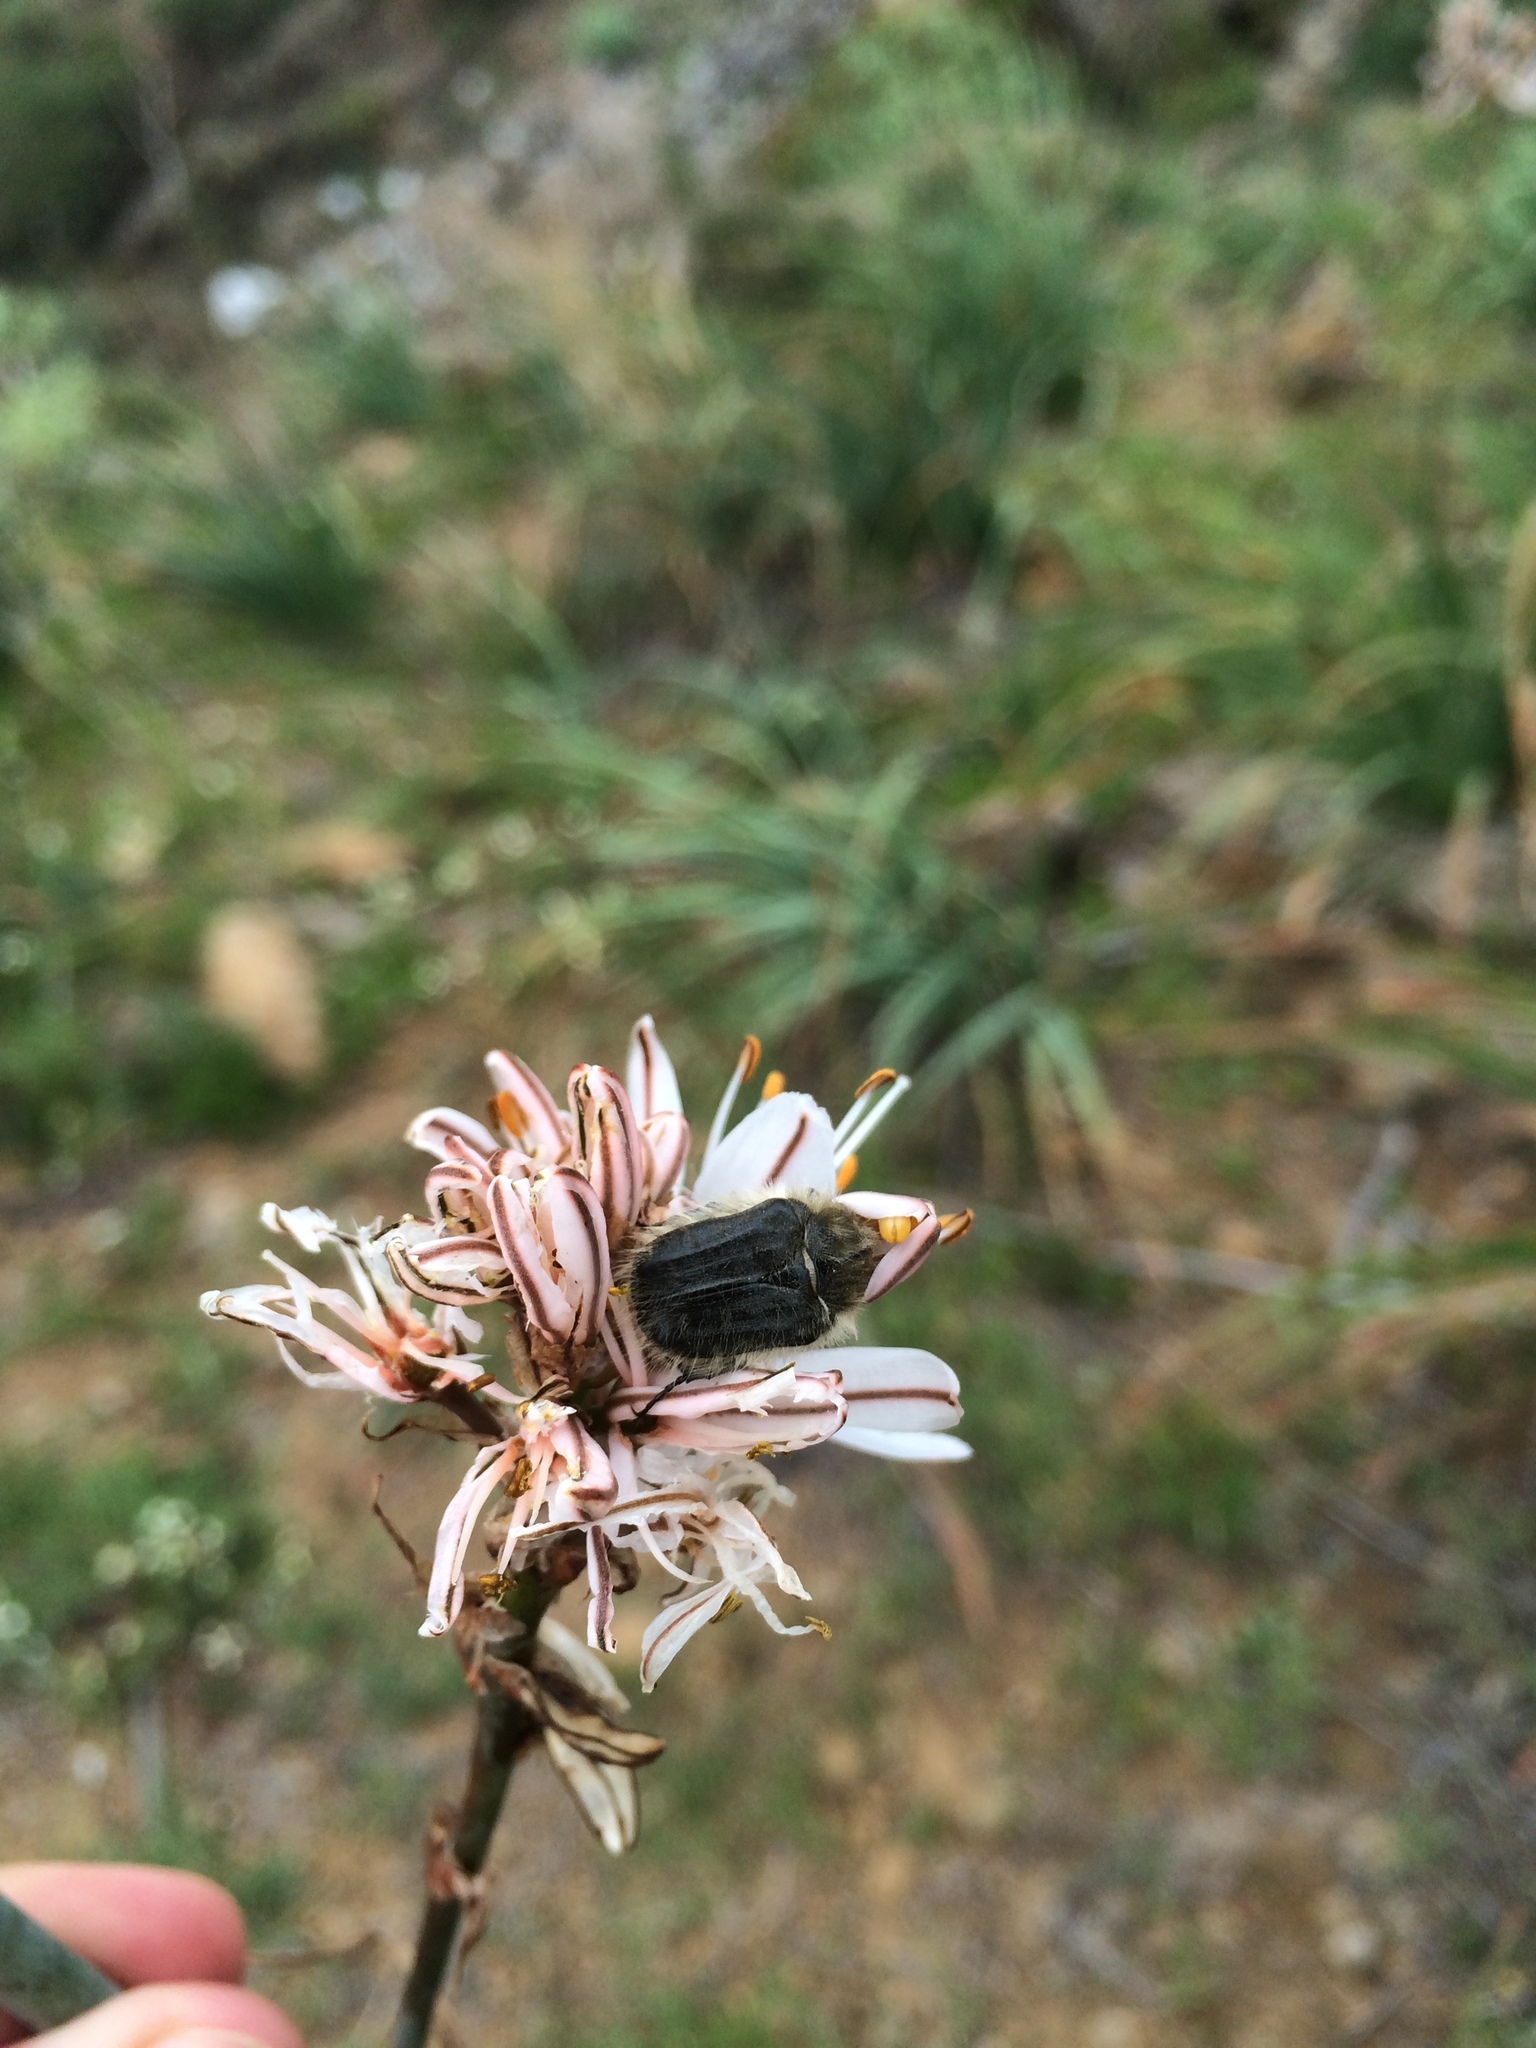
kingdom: Animalia
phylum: Arthropoda
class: Insecta
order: Coleoptera
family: Scarabaeidae
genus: Tropinota
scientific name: Tropinota squalida
